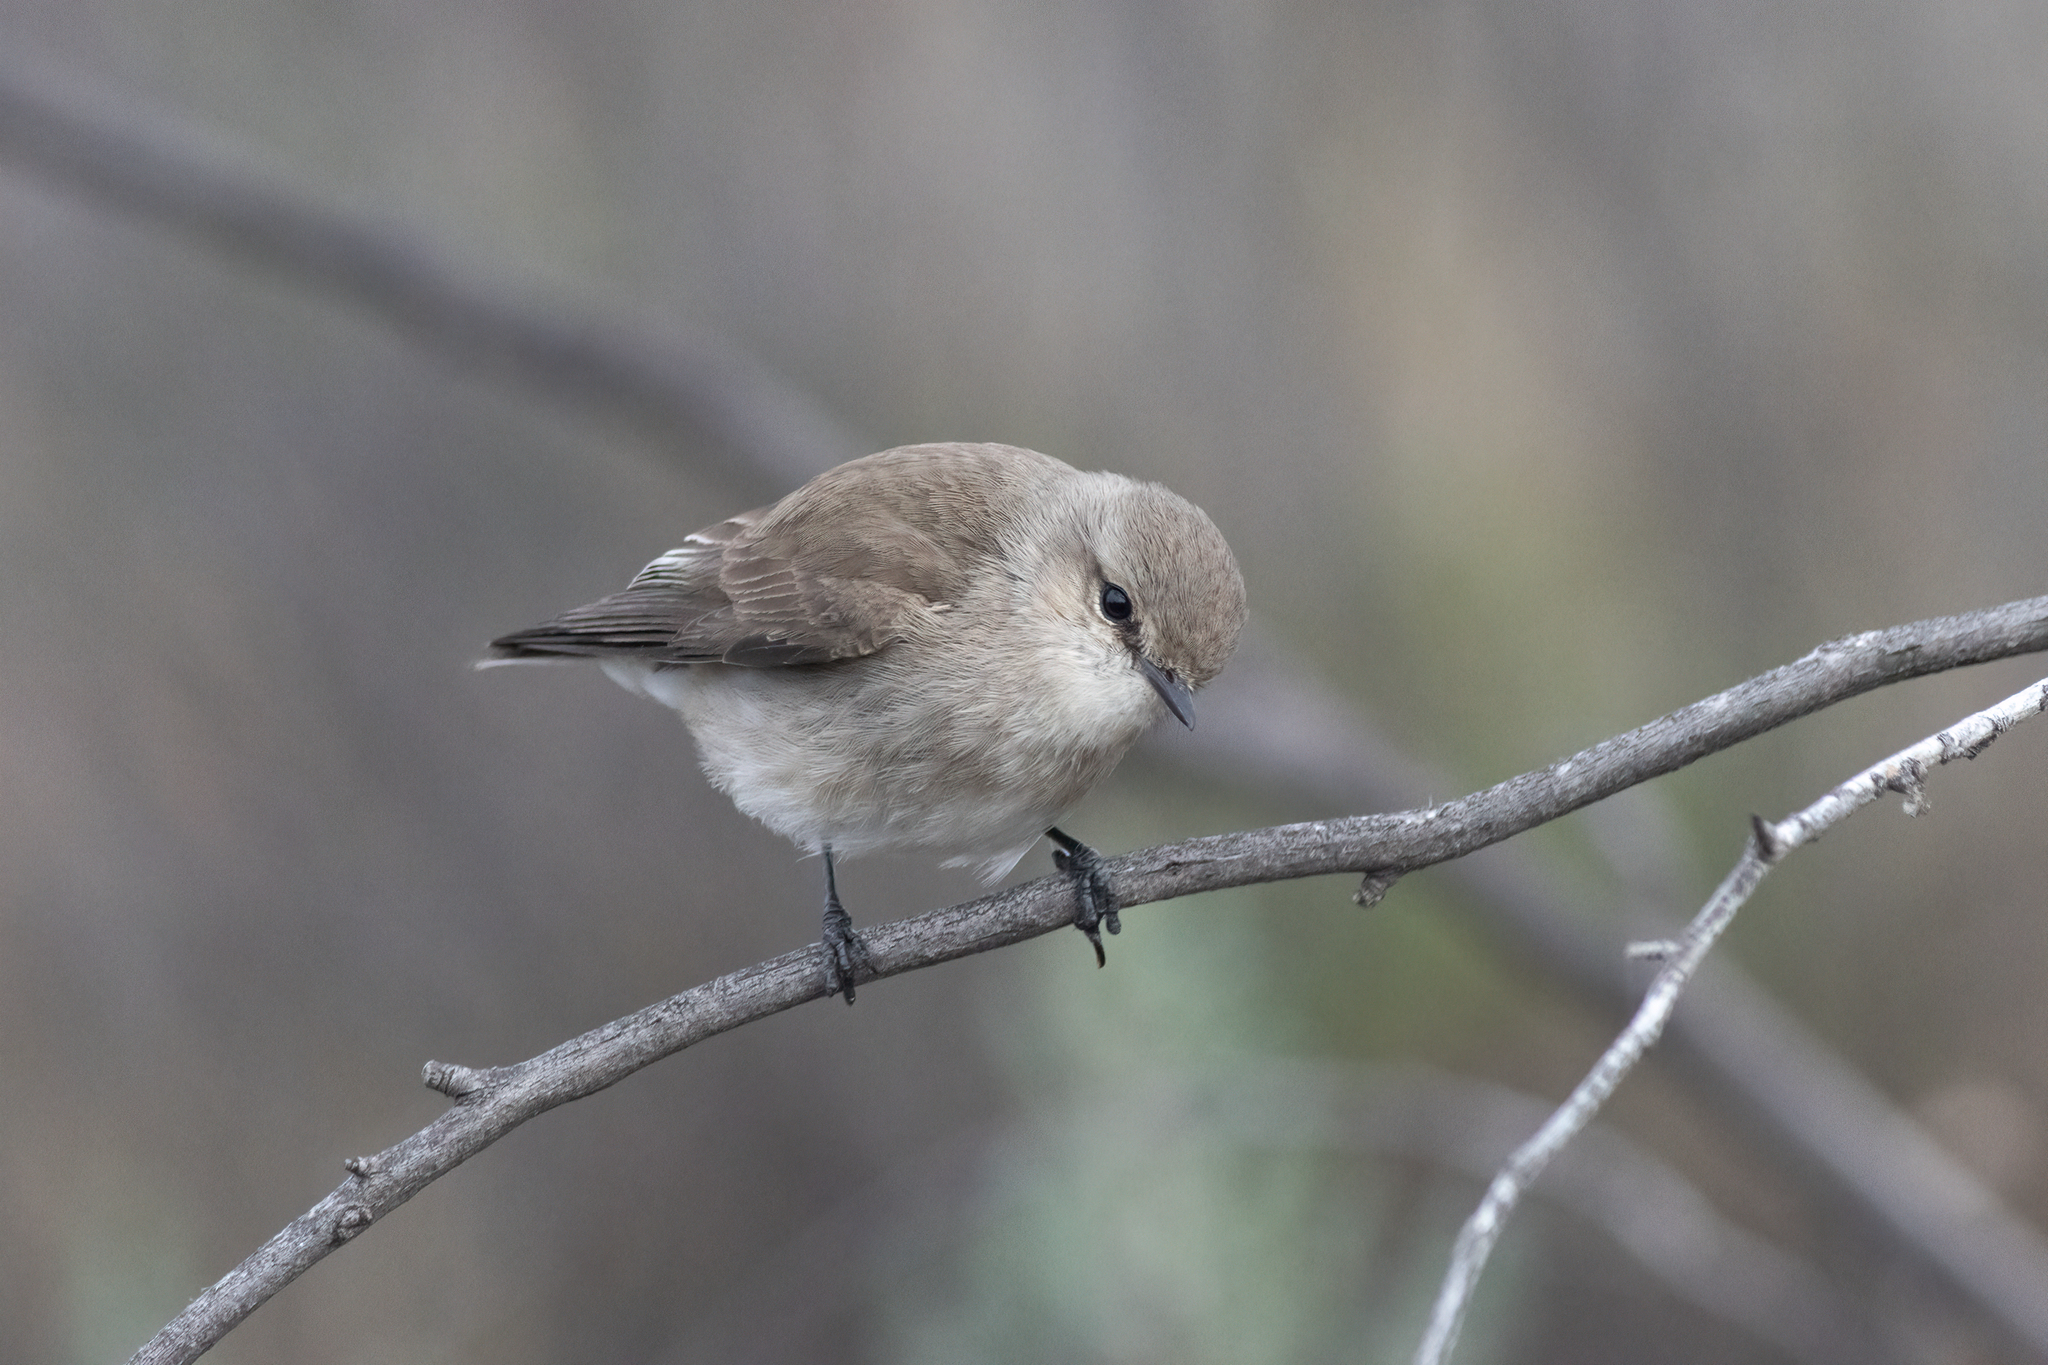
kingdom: Animalia
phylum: Chordata
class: Aves
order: Passeriformes
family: Petroicidae
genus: Microeca
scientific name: Microeca fascinans
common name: Jacky winter
